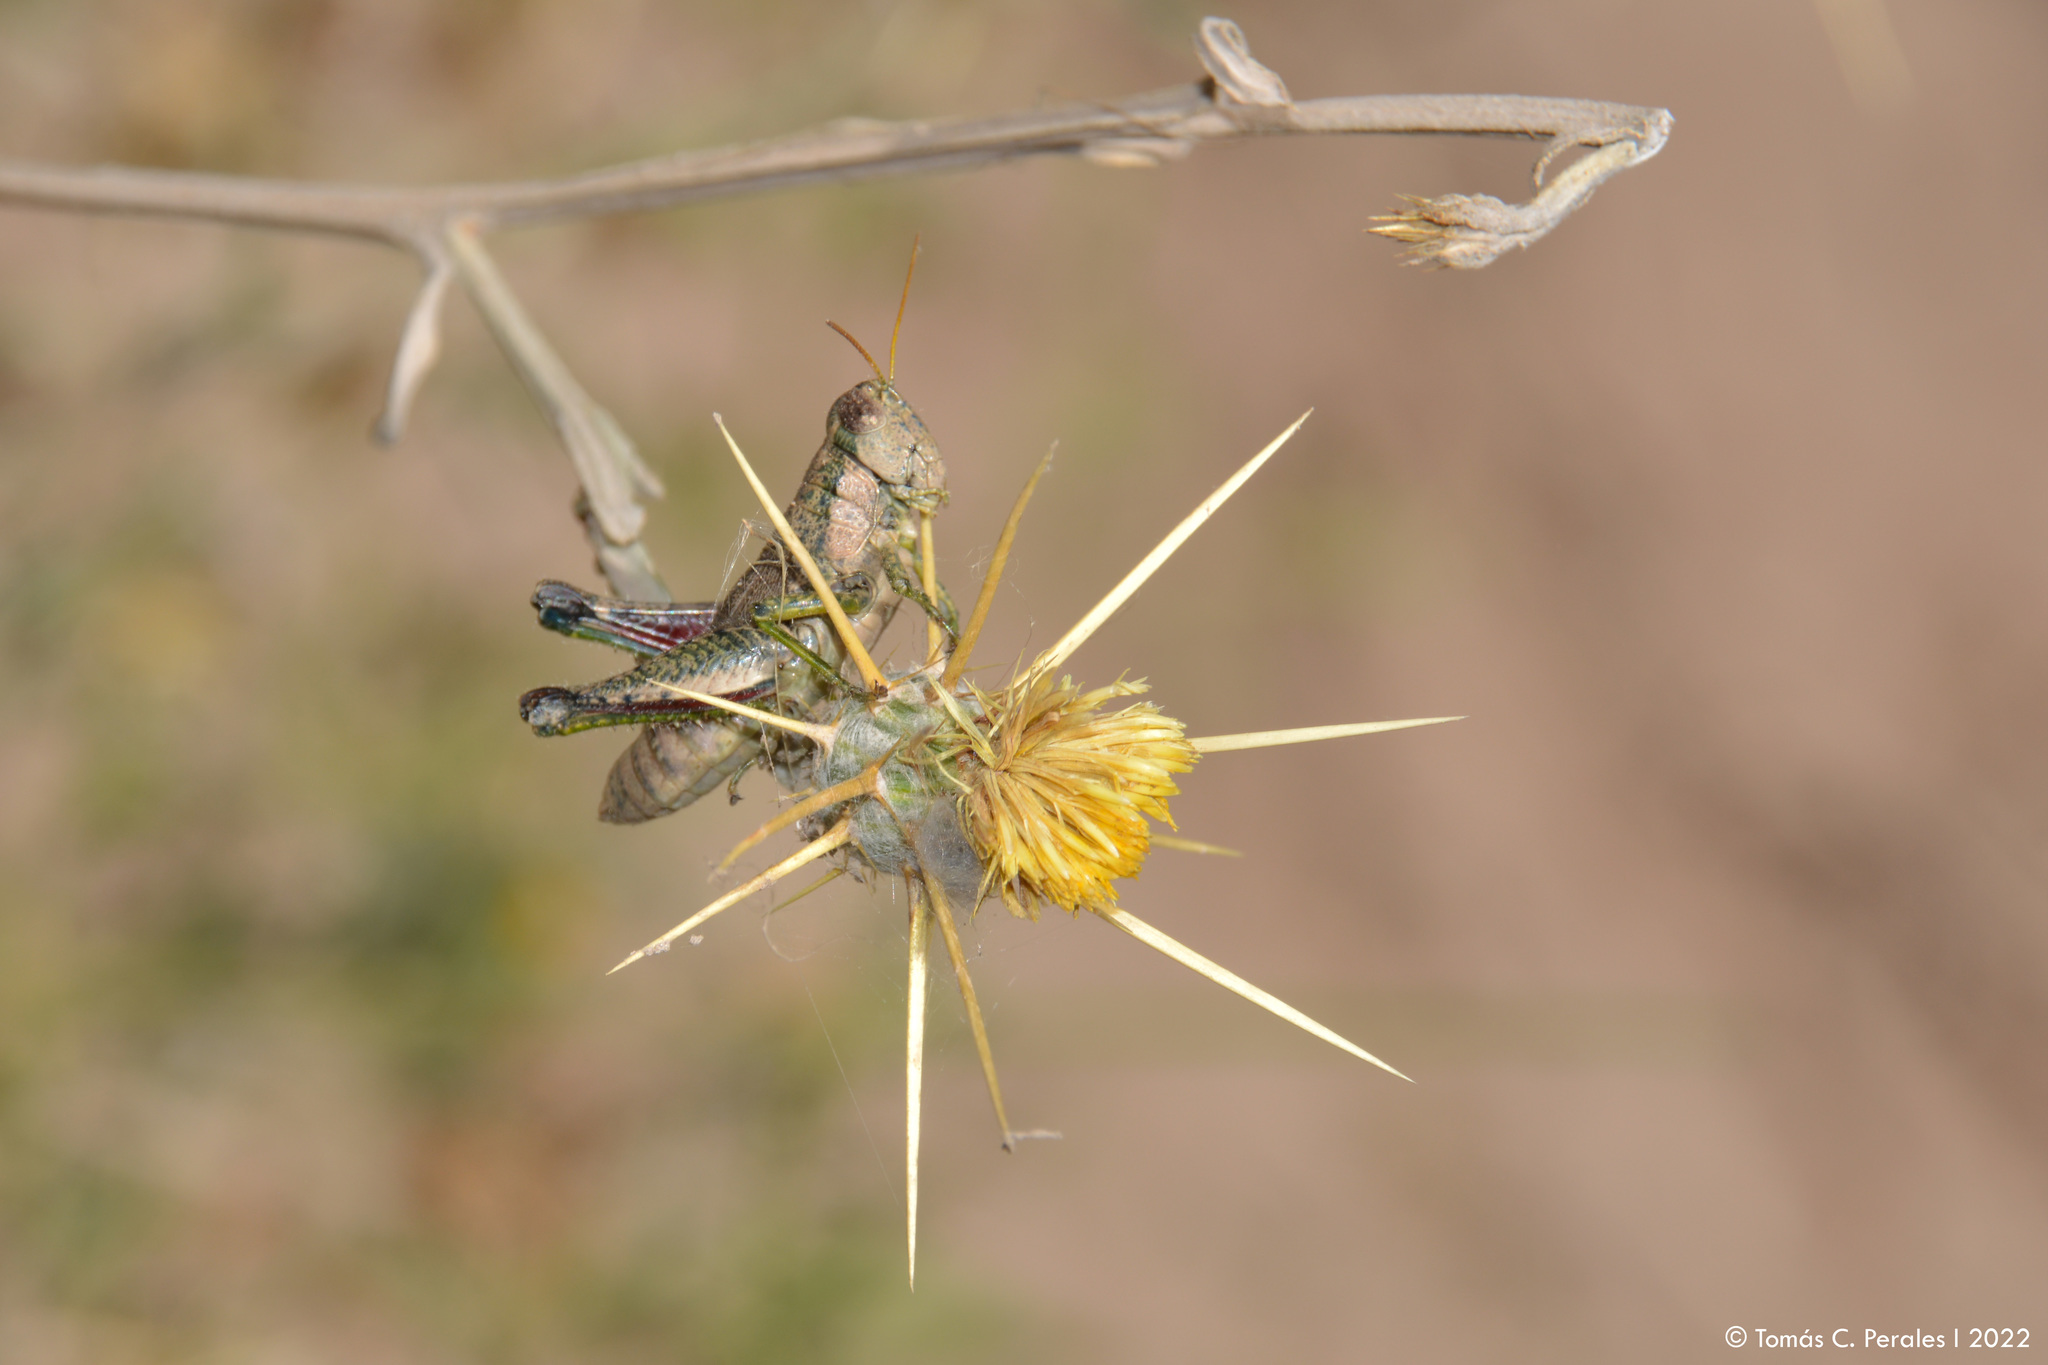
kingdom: Animalia
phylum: Arthropoda
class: Insecta
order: Orthoptera
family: Acrididae
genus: Ronderosia
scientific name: Ronderosia bergii
